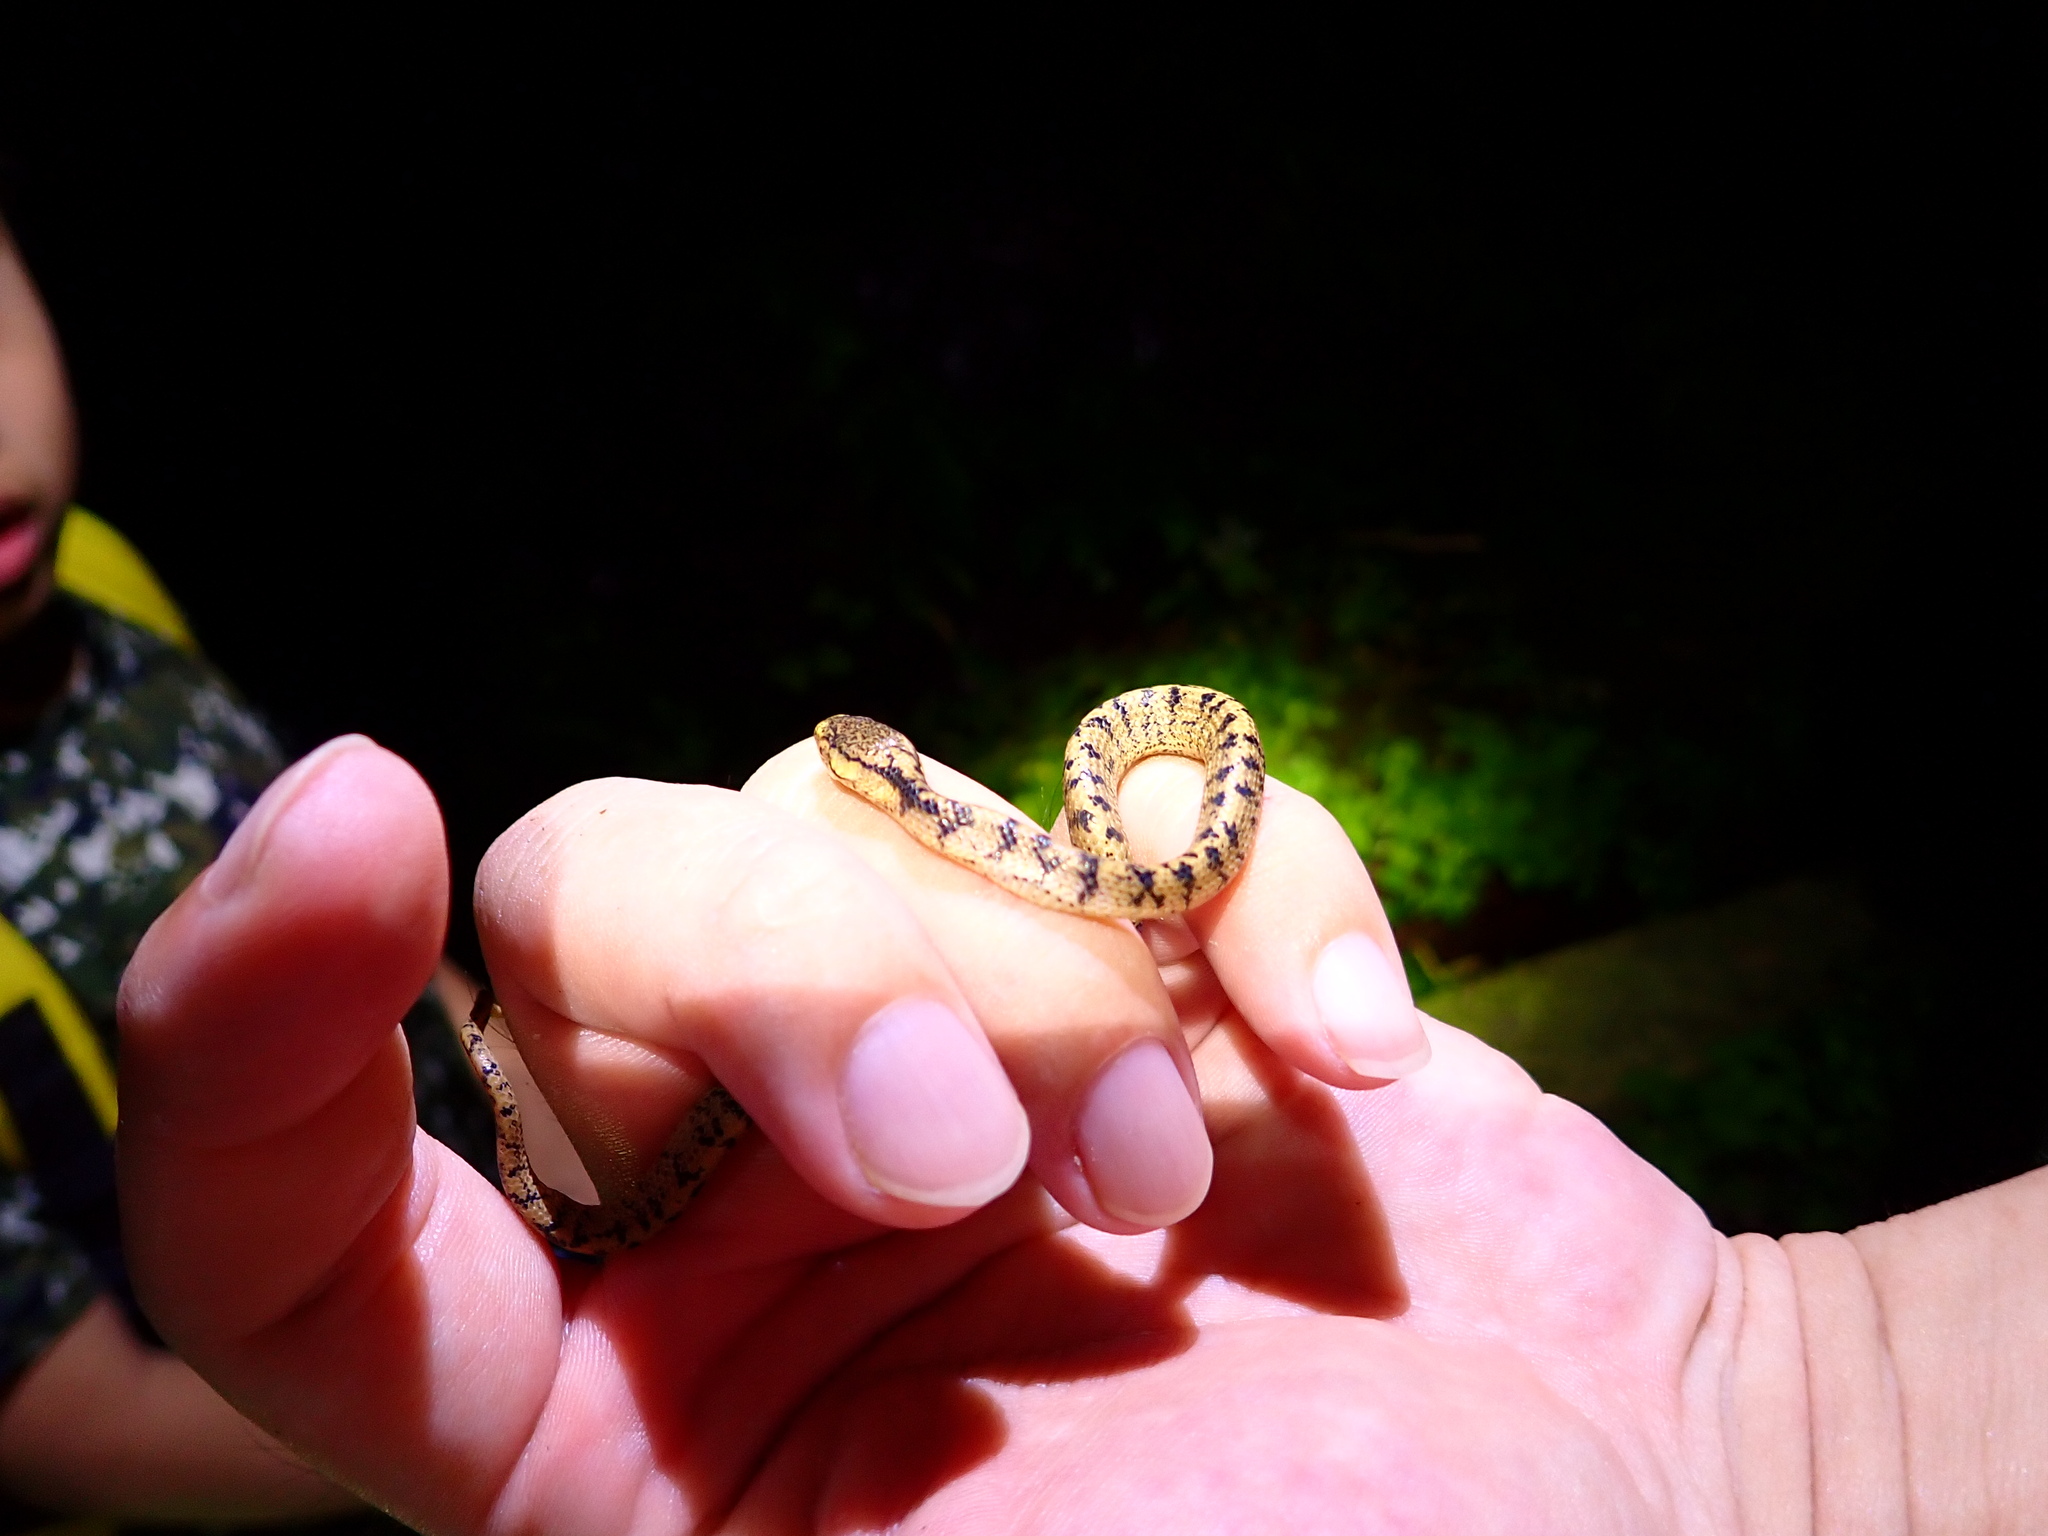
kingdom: Animalia
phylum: Chordata
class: Squamata
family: Pareidae
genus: Pareas
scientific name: Pareas atayal
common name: Atayal slug-eating snake
